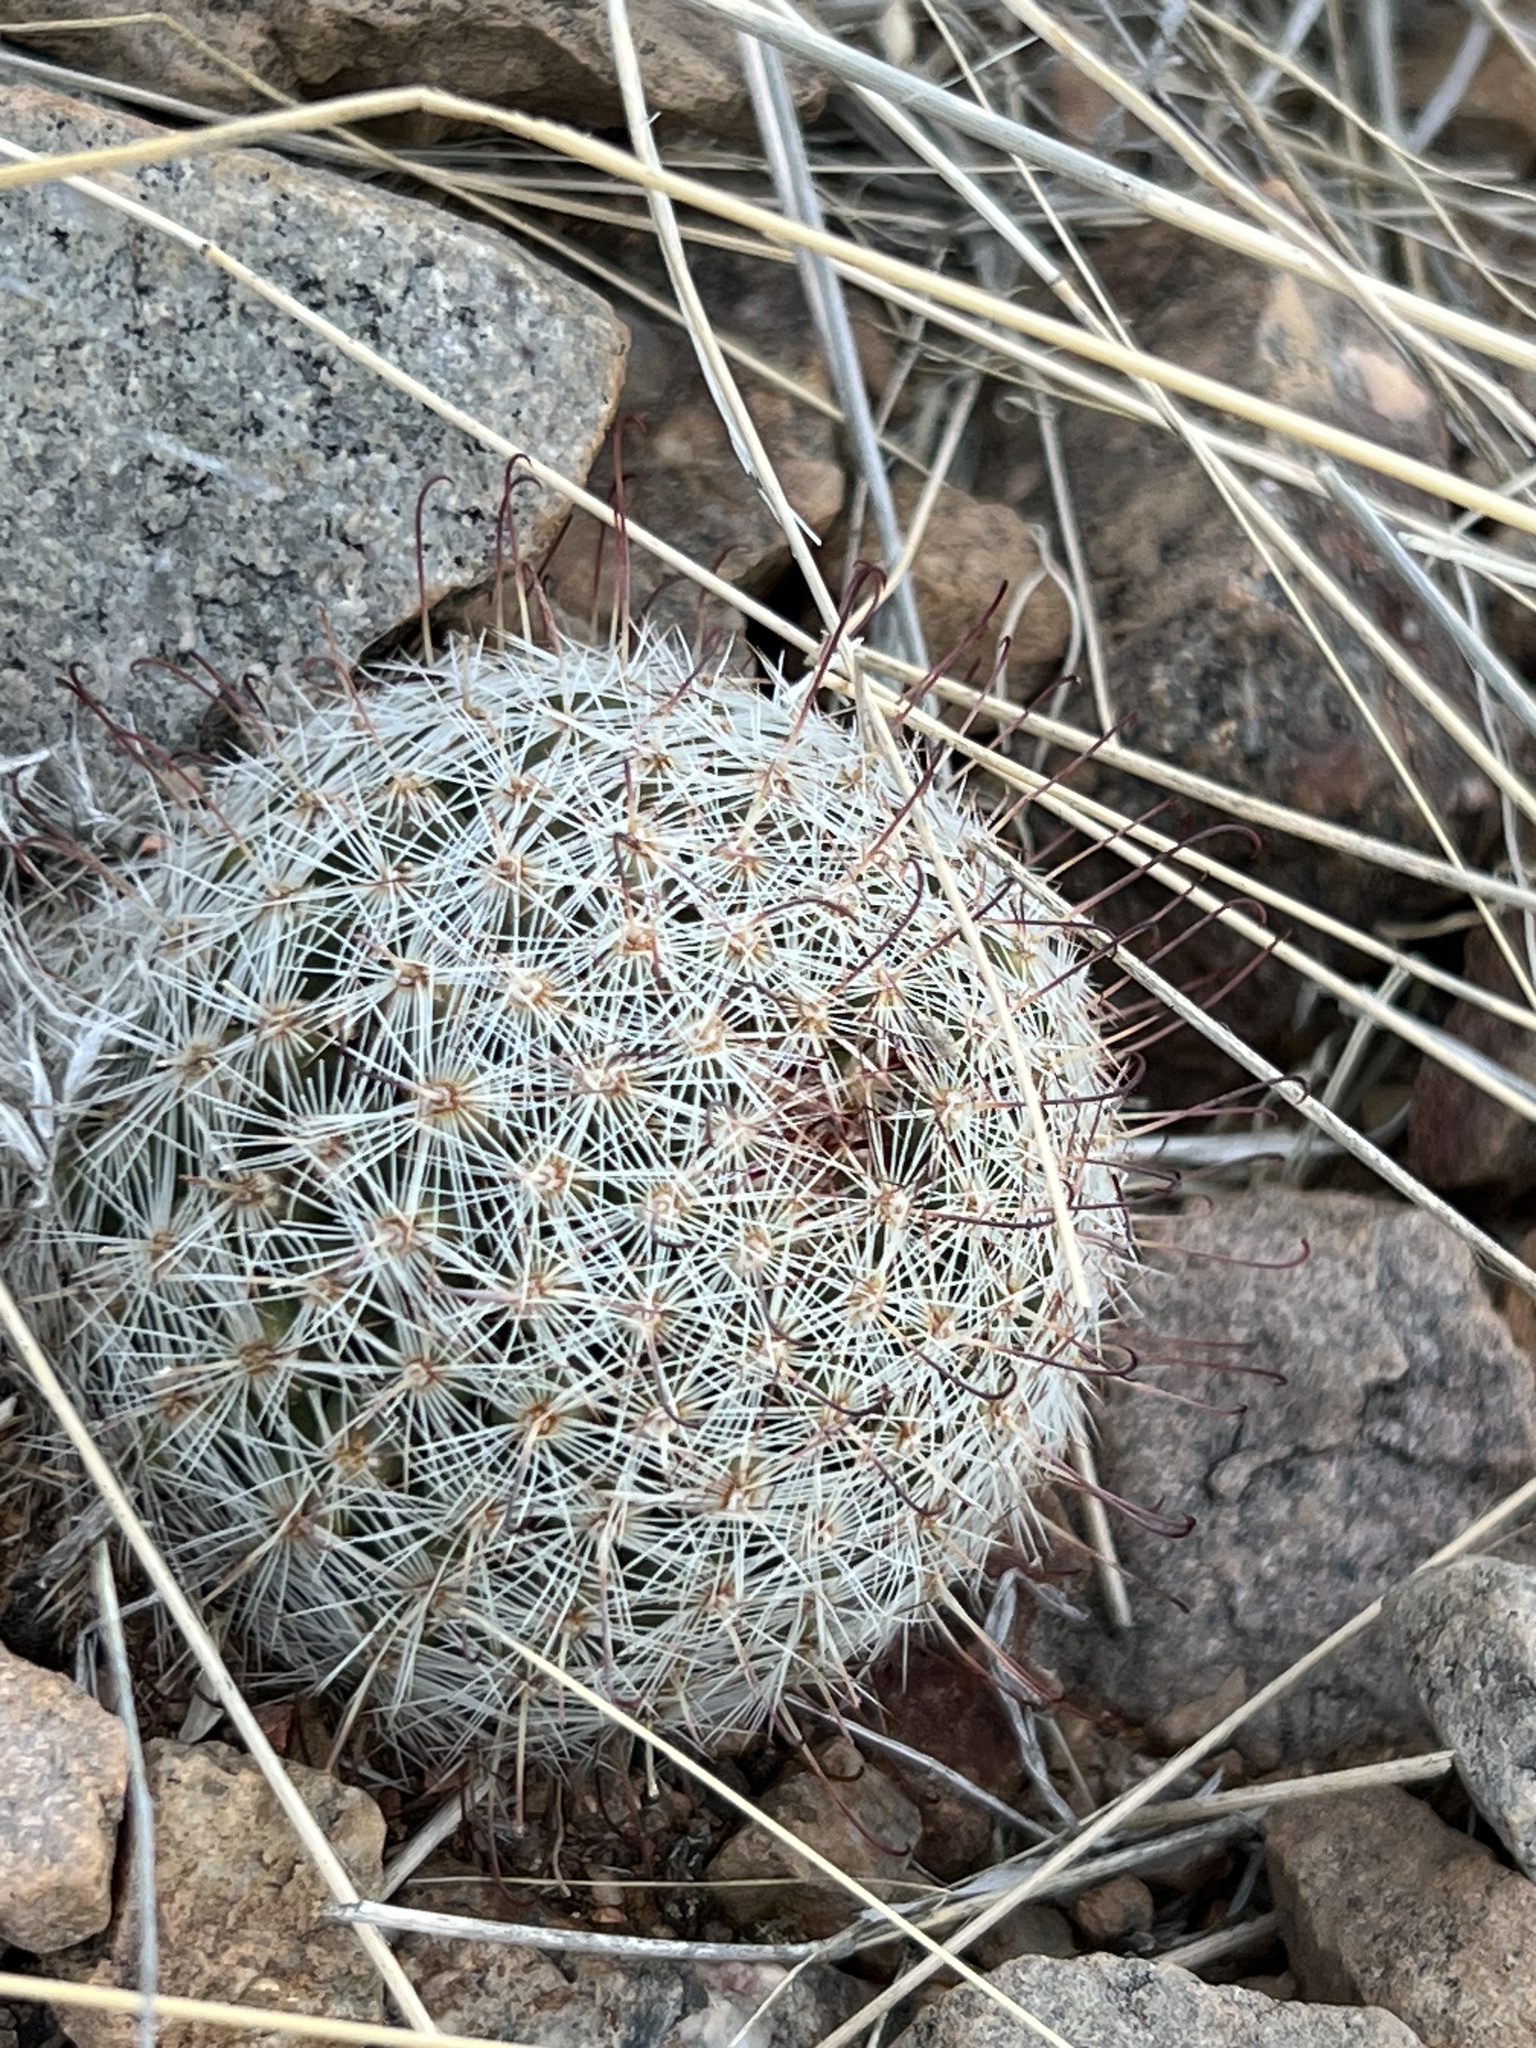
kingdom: Plantae
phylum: Tracheophyta
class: Magnoliopsida
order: Caryophyllales
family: Cactaceae
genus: Cochemiea
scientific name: Cochemiea grahamii
